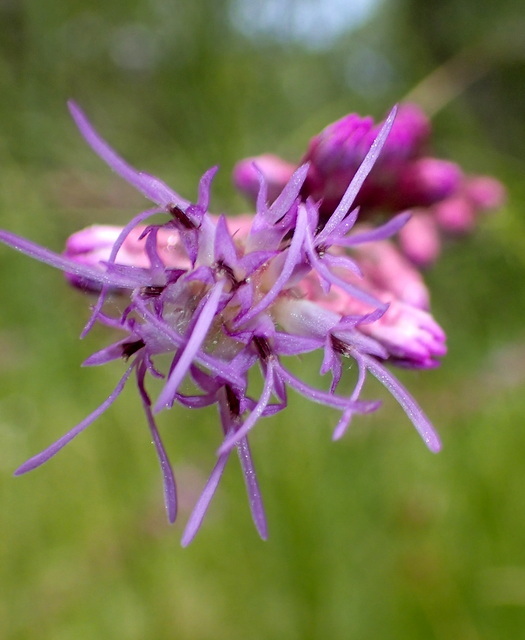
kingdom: Plantae
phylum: Tracheophyta
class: Magnoliopsida
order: Asterales
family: Asteraceae
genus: Liatris
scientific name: Liatris spicata
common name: Florist gayfeather
